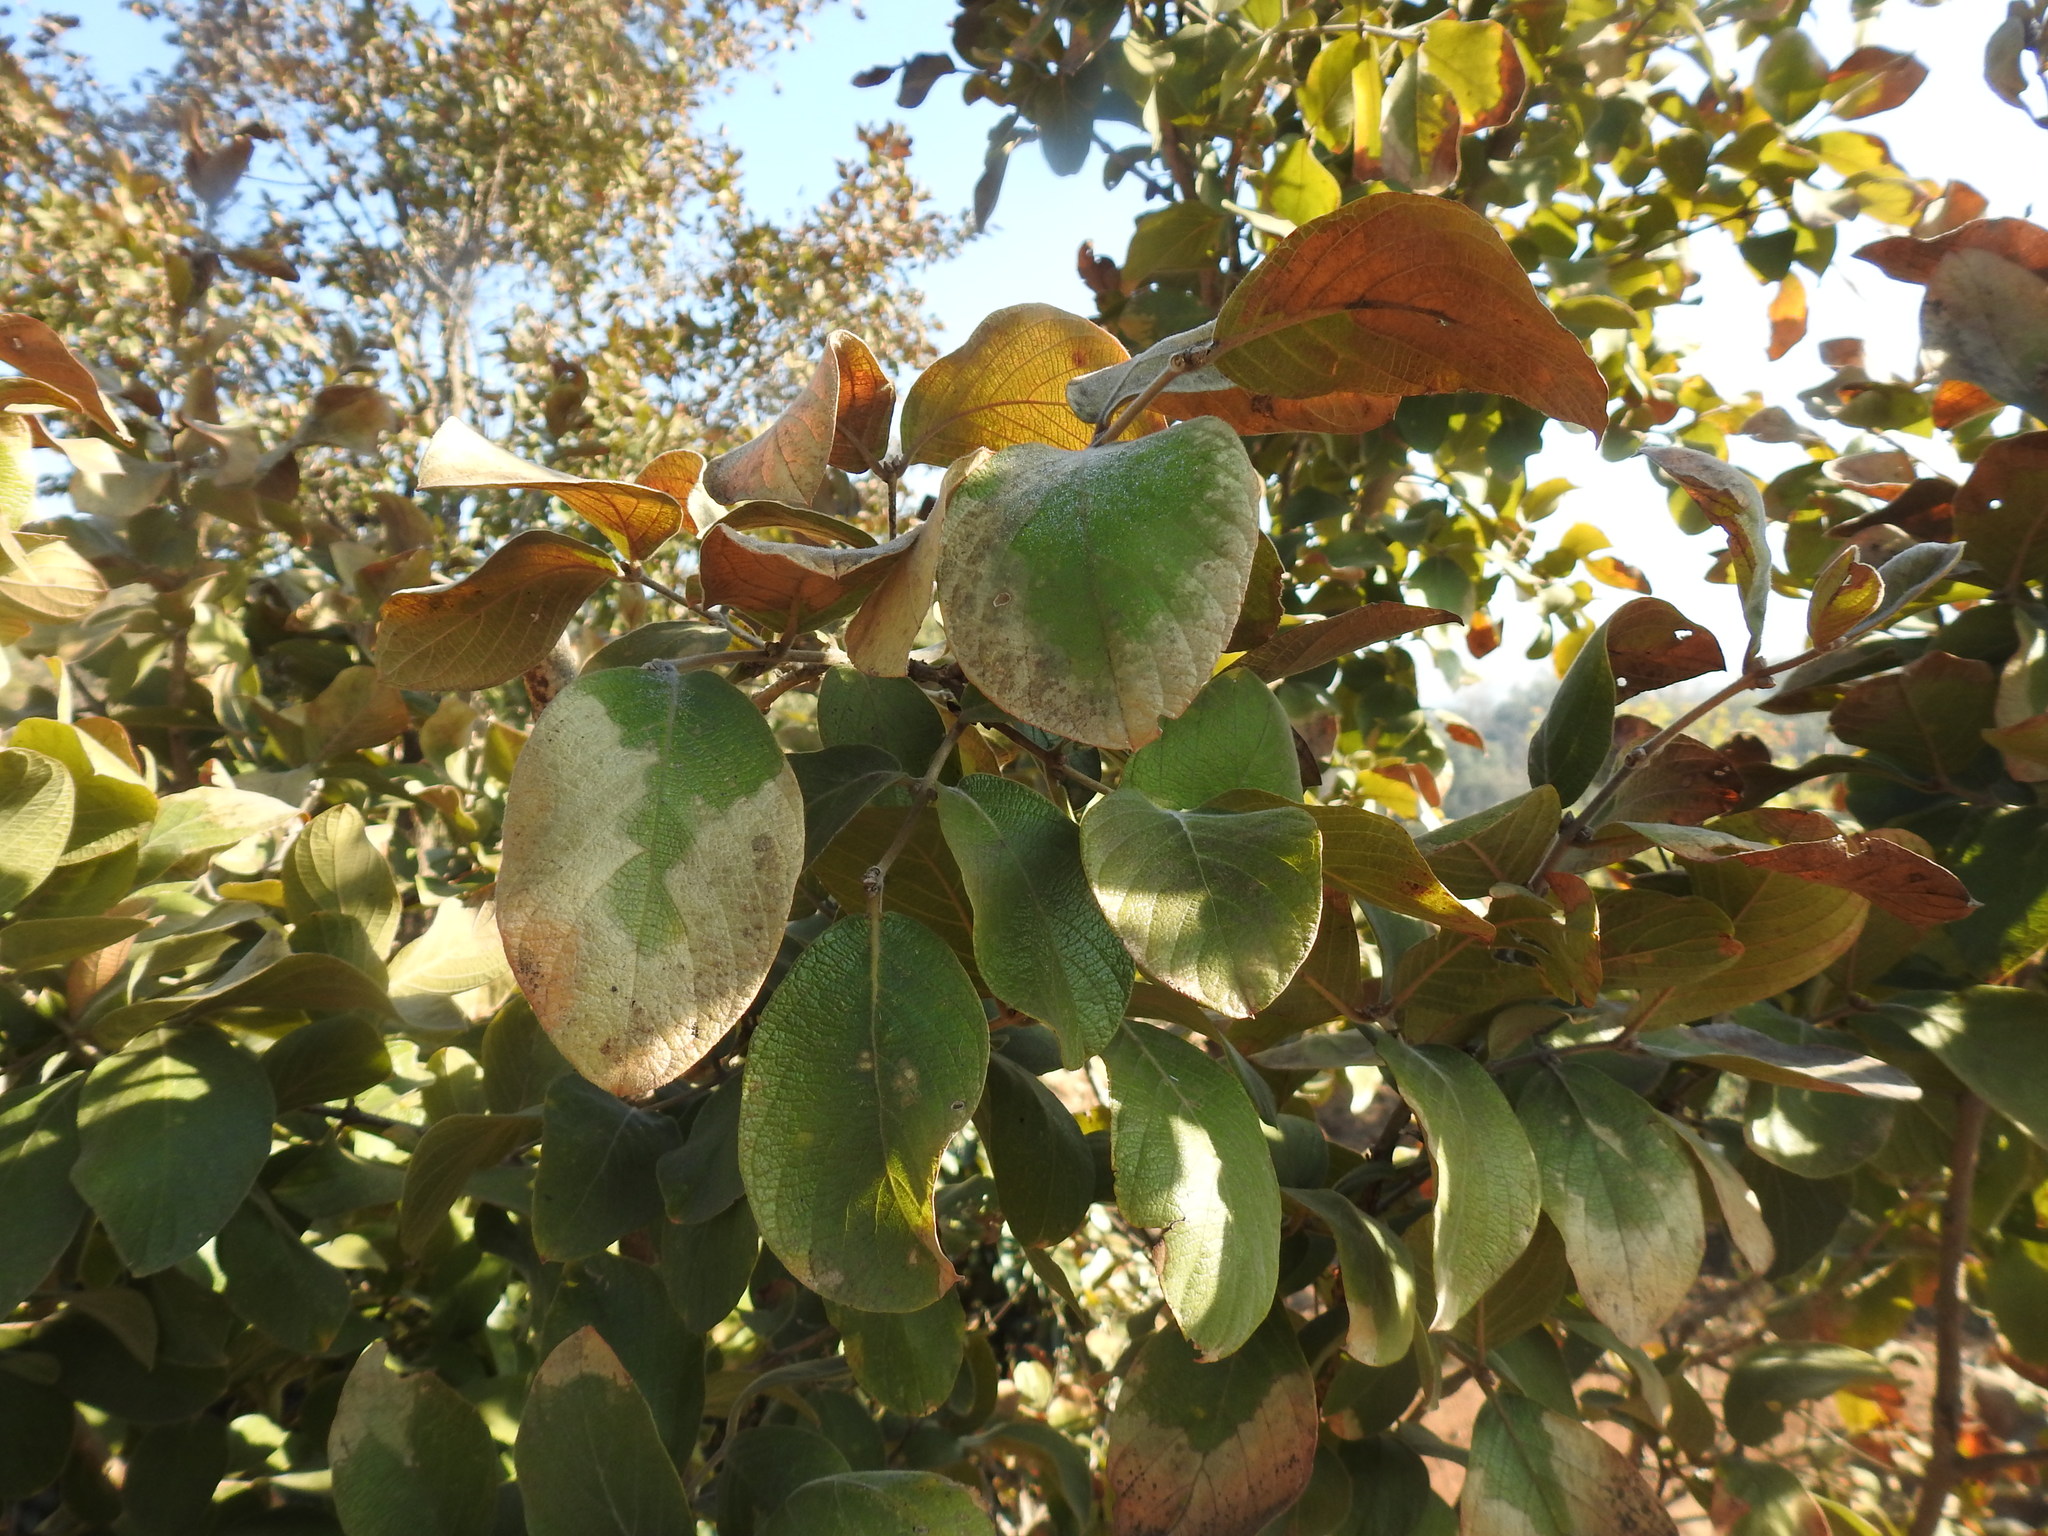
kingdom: Plantae
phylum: Tracheophyta
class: Magnoliopsida
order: Myrtales
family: Combretaceae
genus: Combretum
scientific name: Combretum molle
